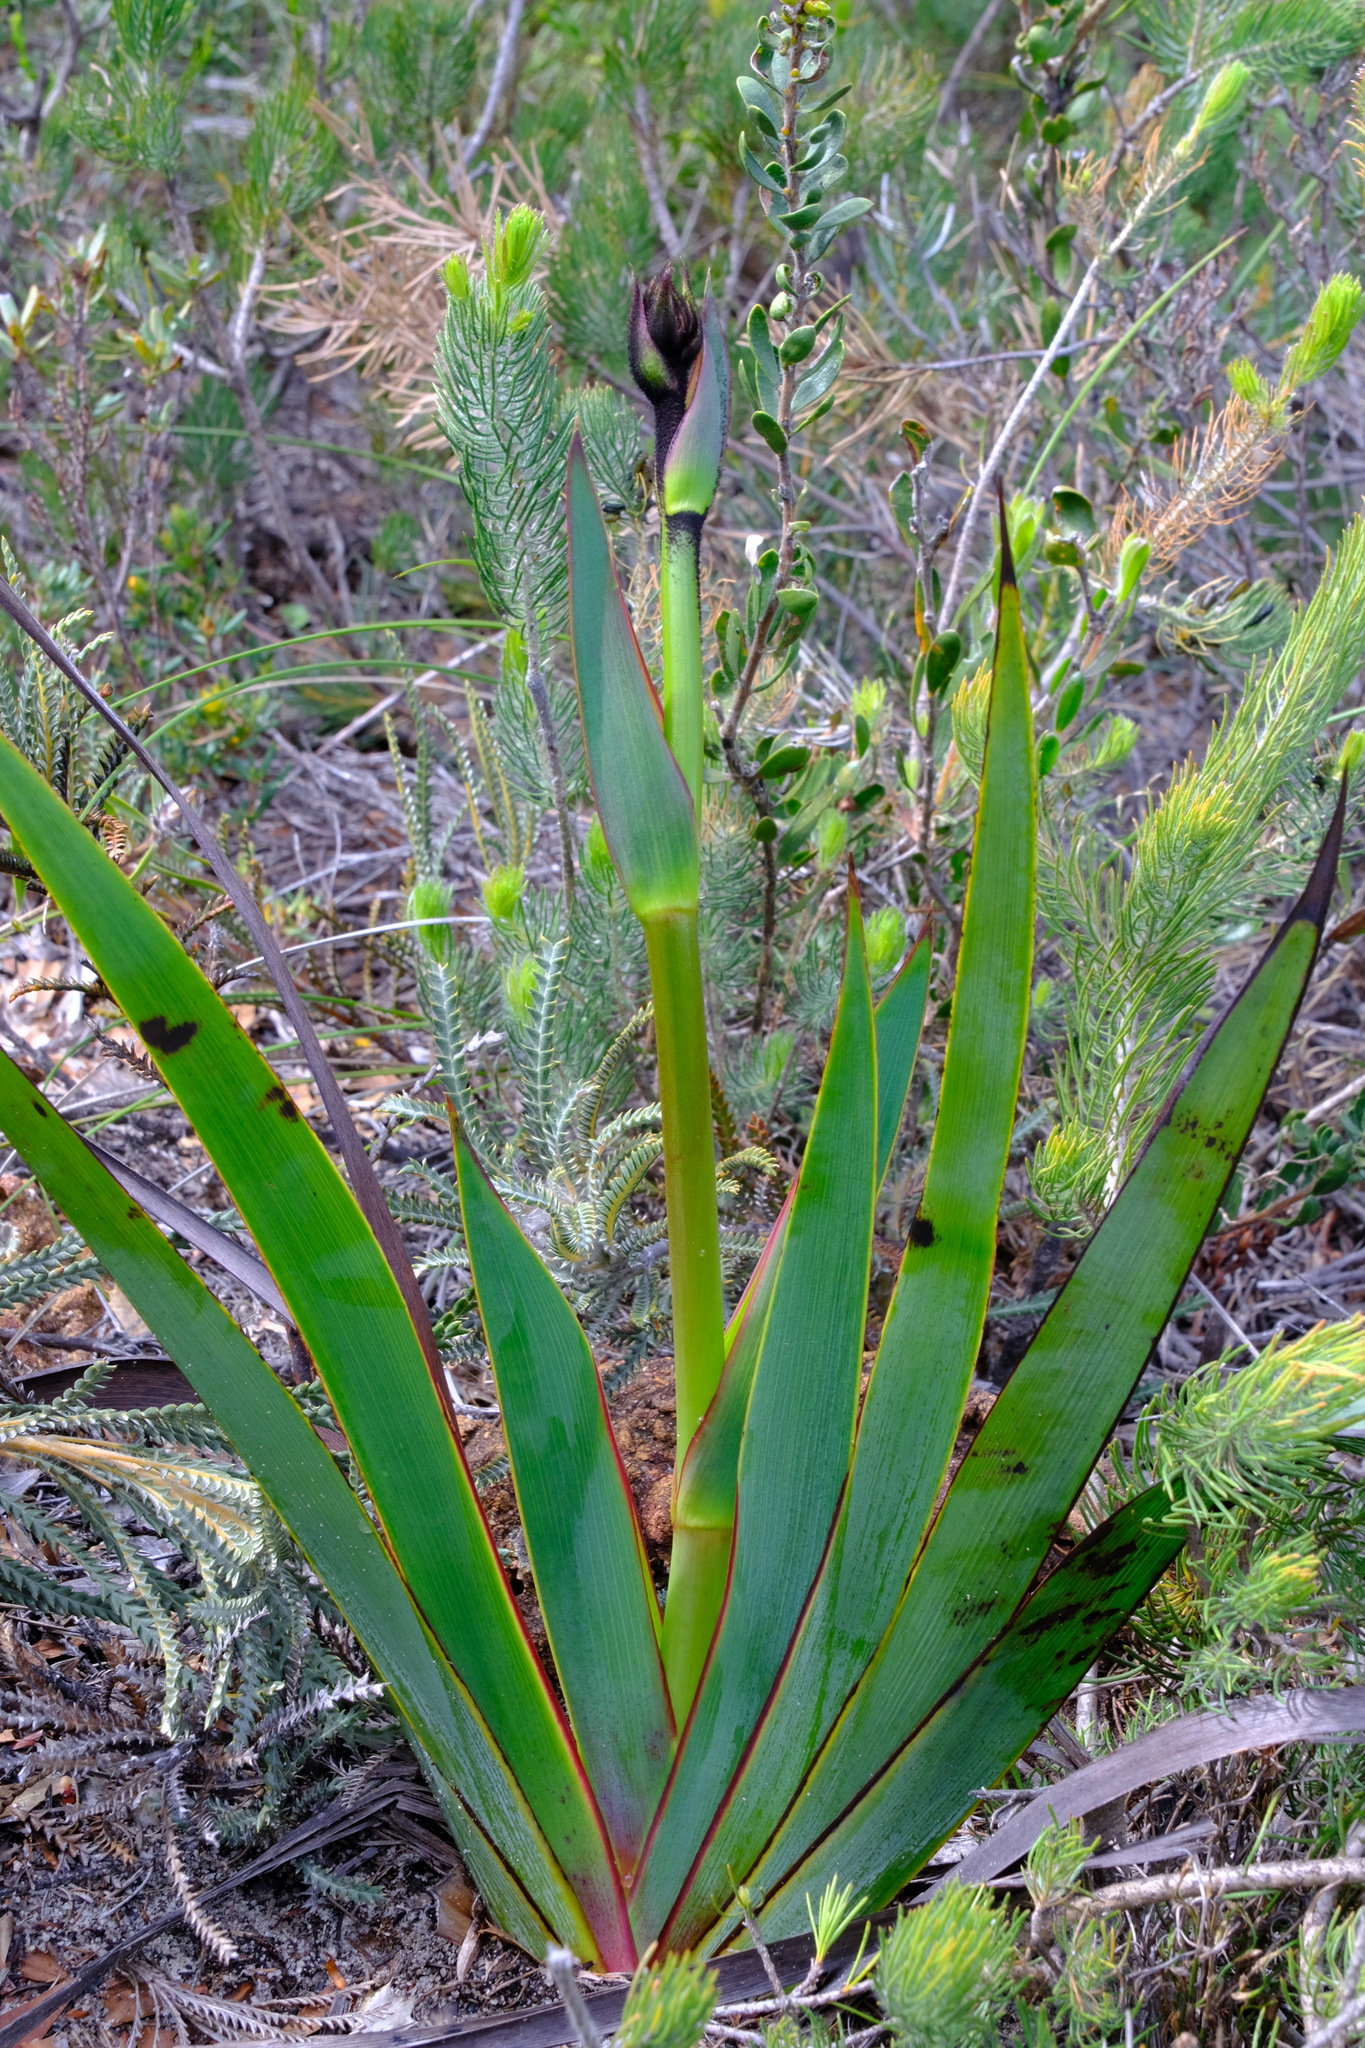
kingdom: Plantae
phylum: Tracheophyta
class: Liliopsida
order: Commelinales
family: Haemodoraceae
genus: Macropidia
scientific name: Macropidia fuliginosa
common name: Black kangaroo-paw
